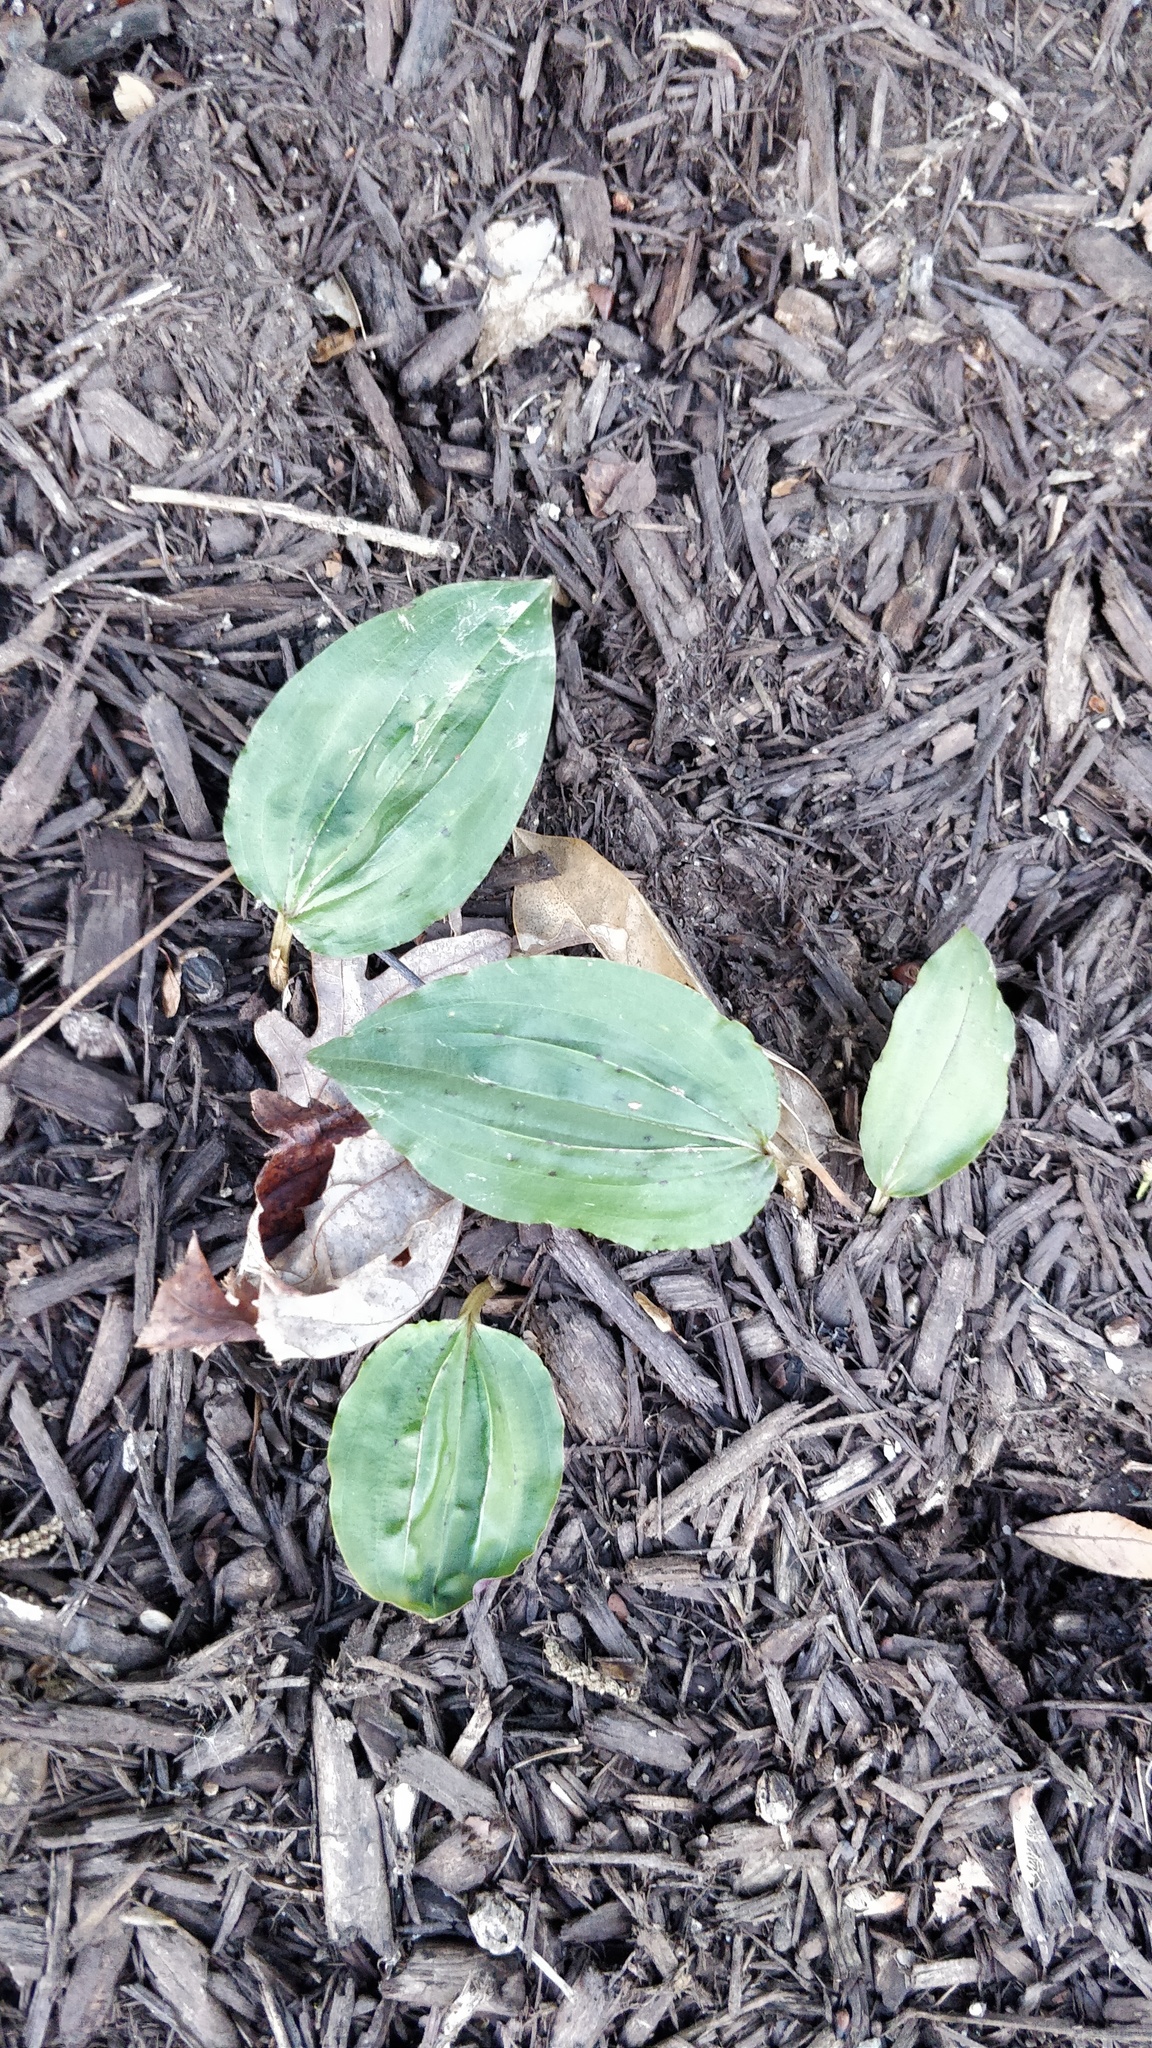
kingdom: Plantae
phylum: Tracheophyta
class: Liliopsida
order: Asparagales
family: Orchidaceae
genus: Tipularia
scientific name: Tipularia discolor
